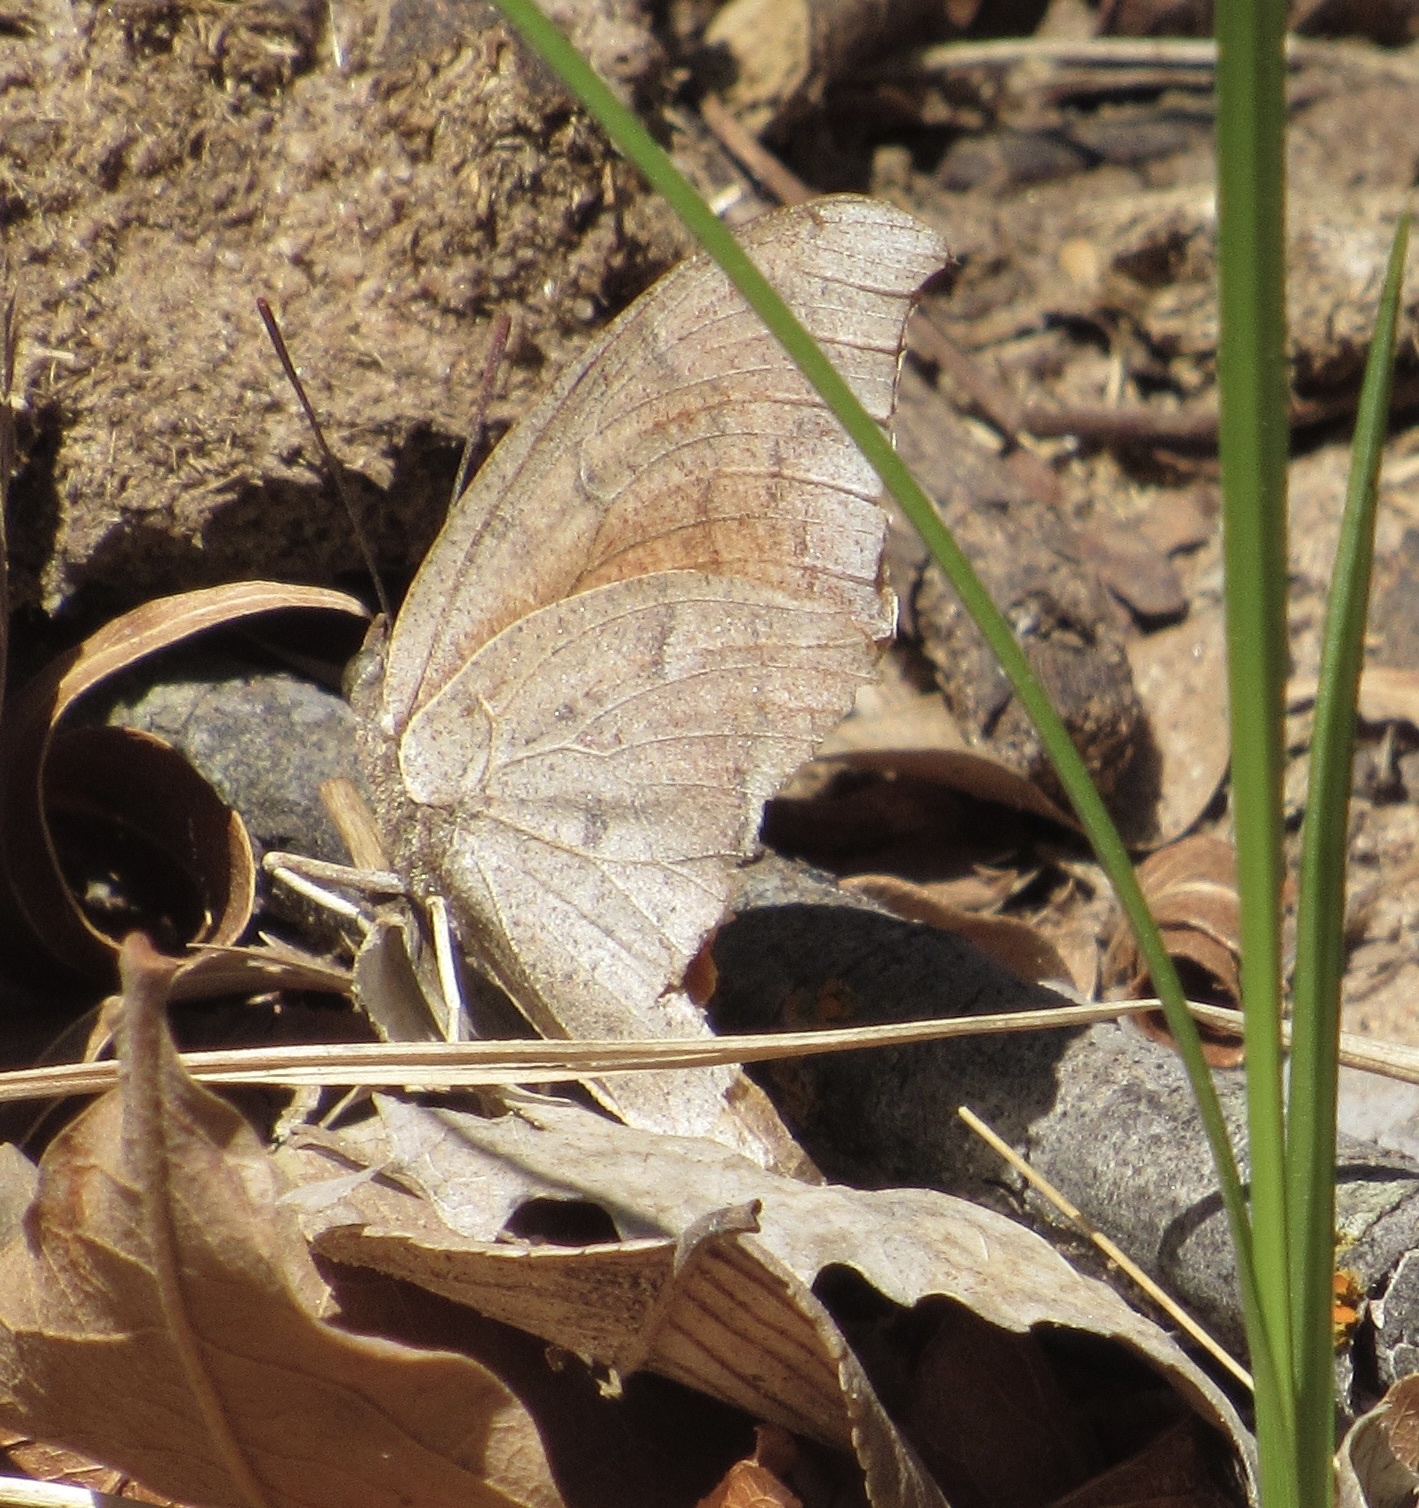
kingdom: Animalia
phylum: Arthropoda
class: Insecta
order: Lepidoptera
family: Nymphalidae
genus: Anaea
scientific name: Anaea andria
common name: Goatweed leafwing
